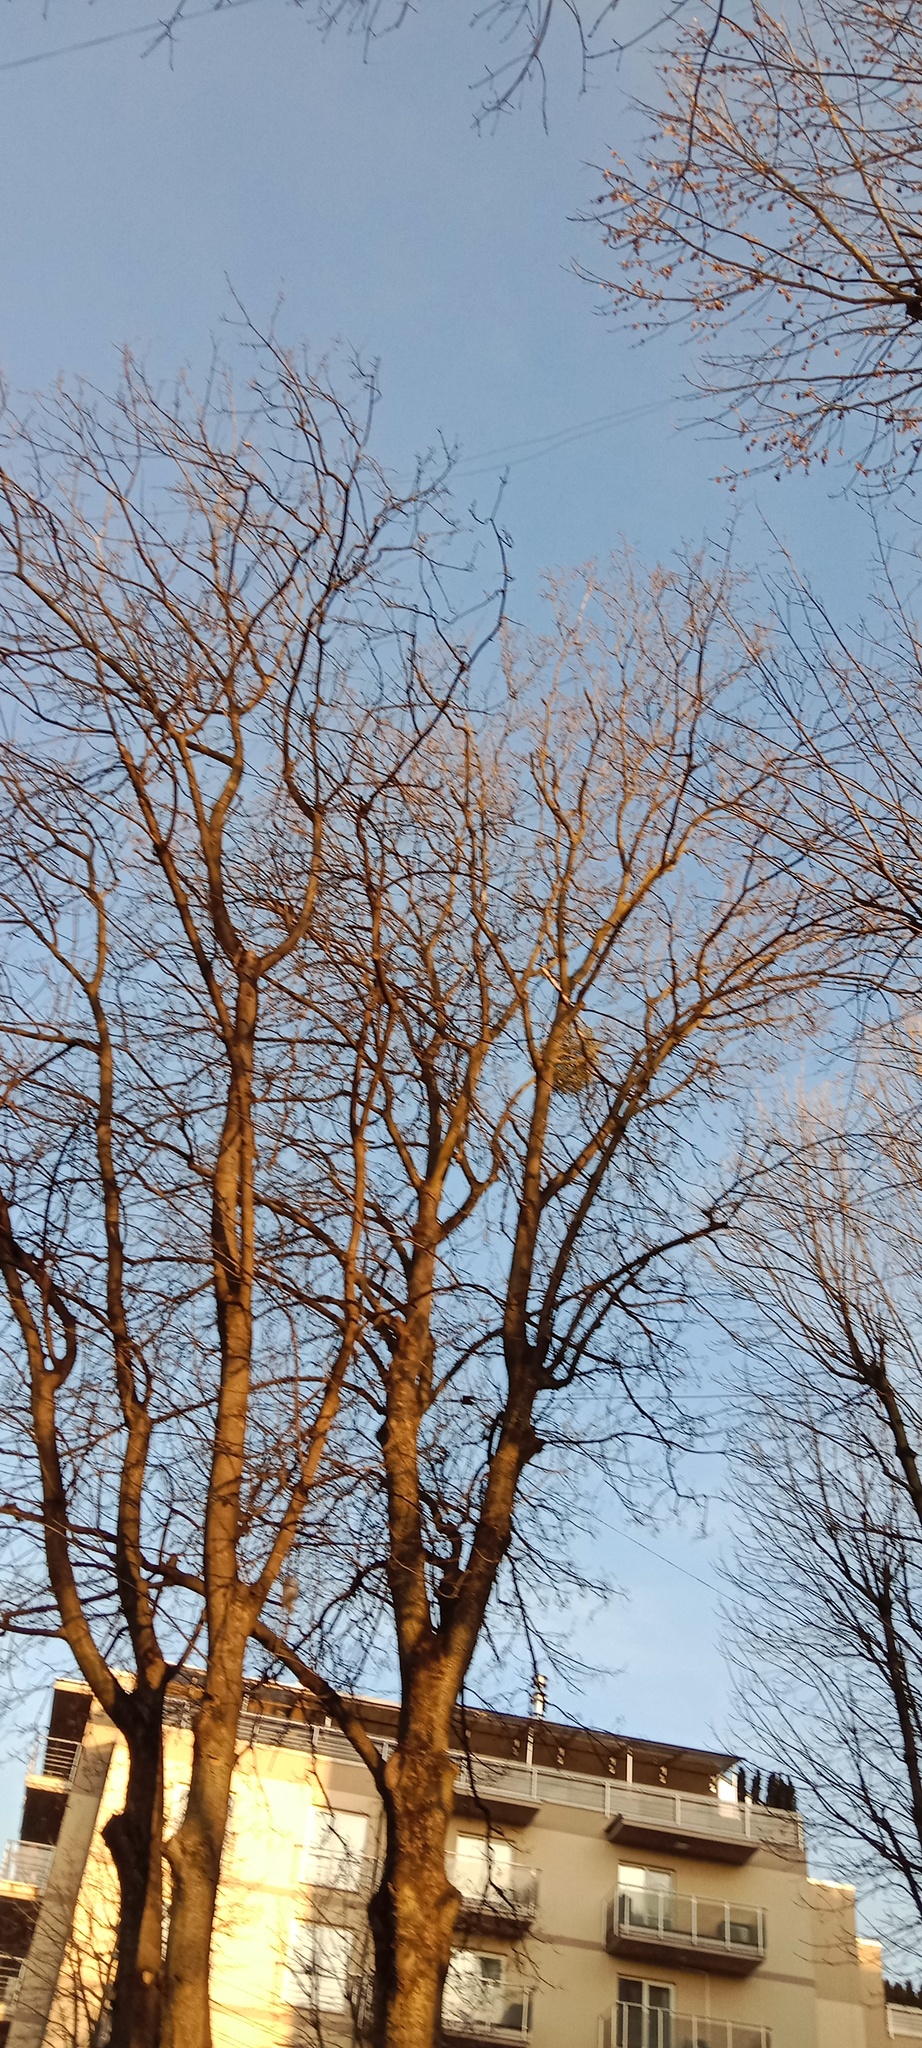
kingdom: Plantae
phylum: Tracheophyta
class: Magnoliopsida
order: Santalales
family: Viscaceae
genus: Viscum
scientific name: Viscum album
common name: Mistletoe
